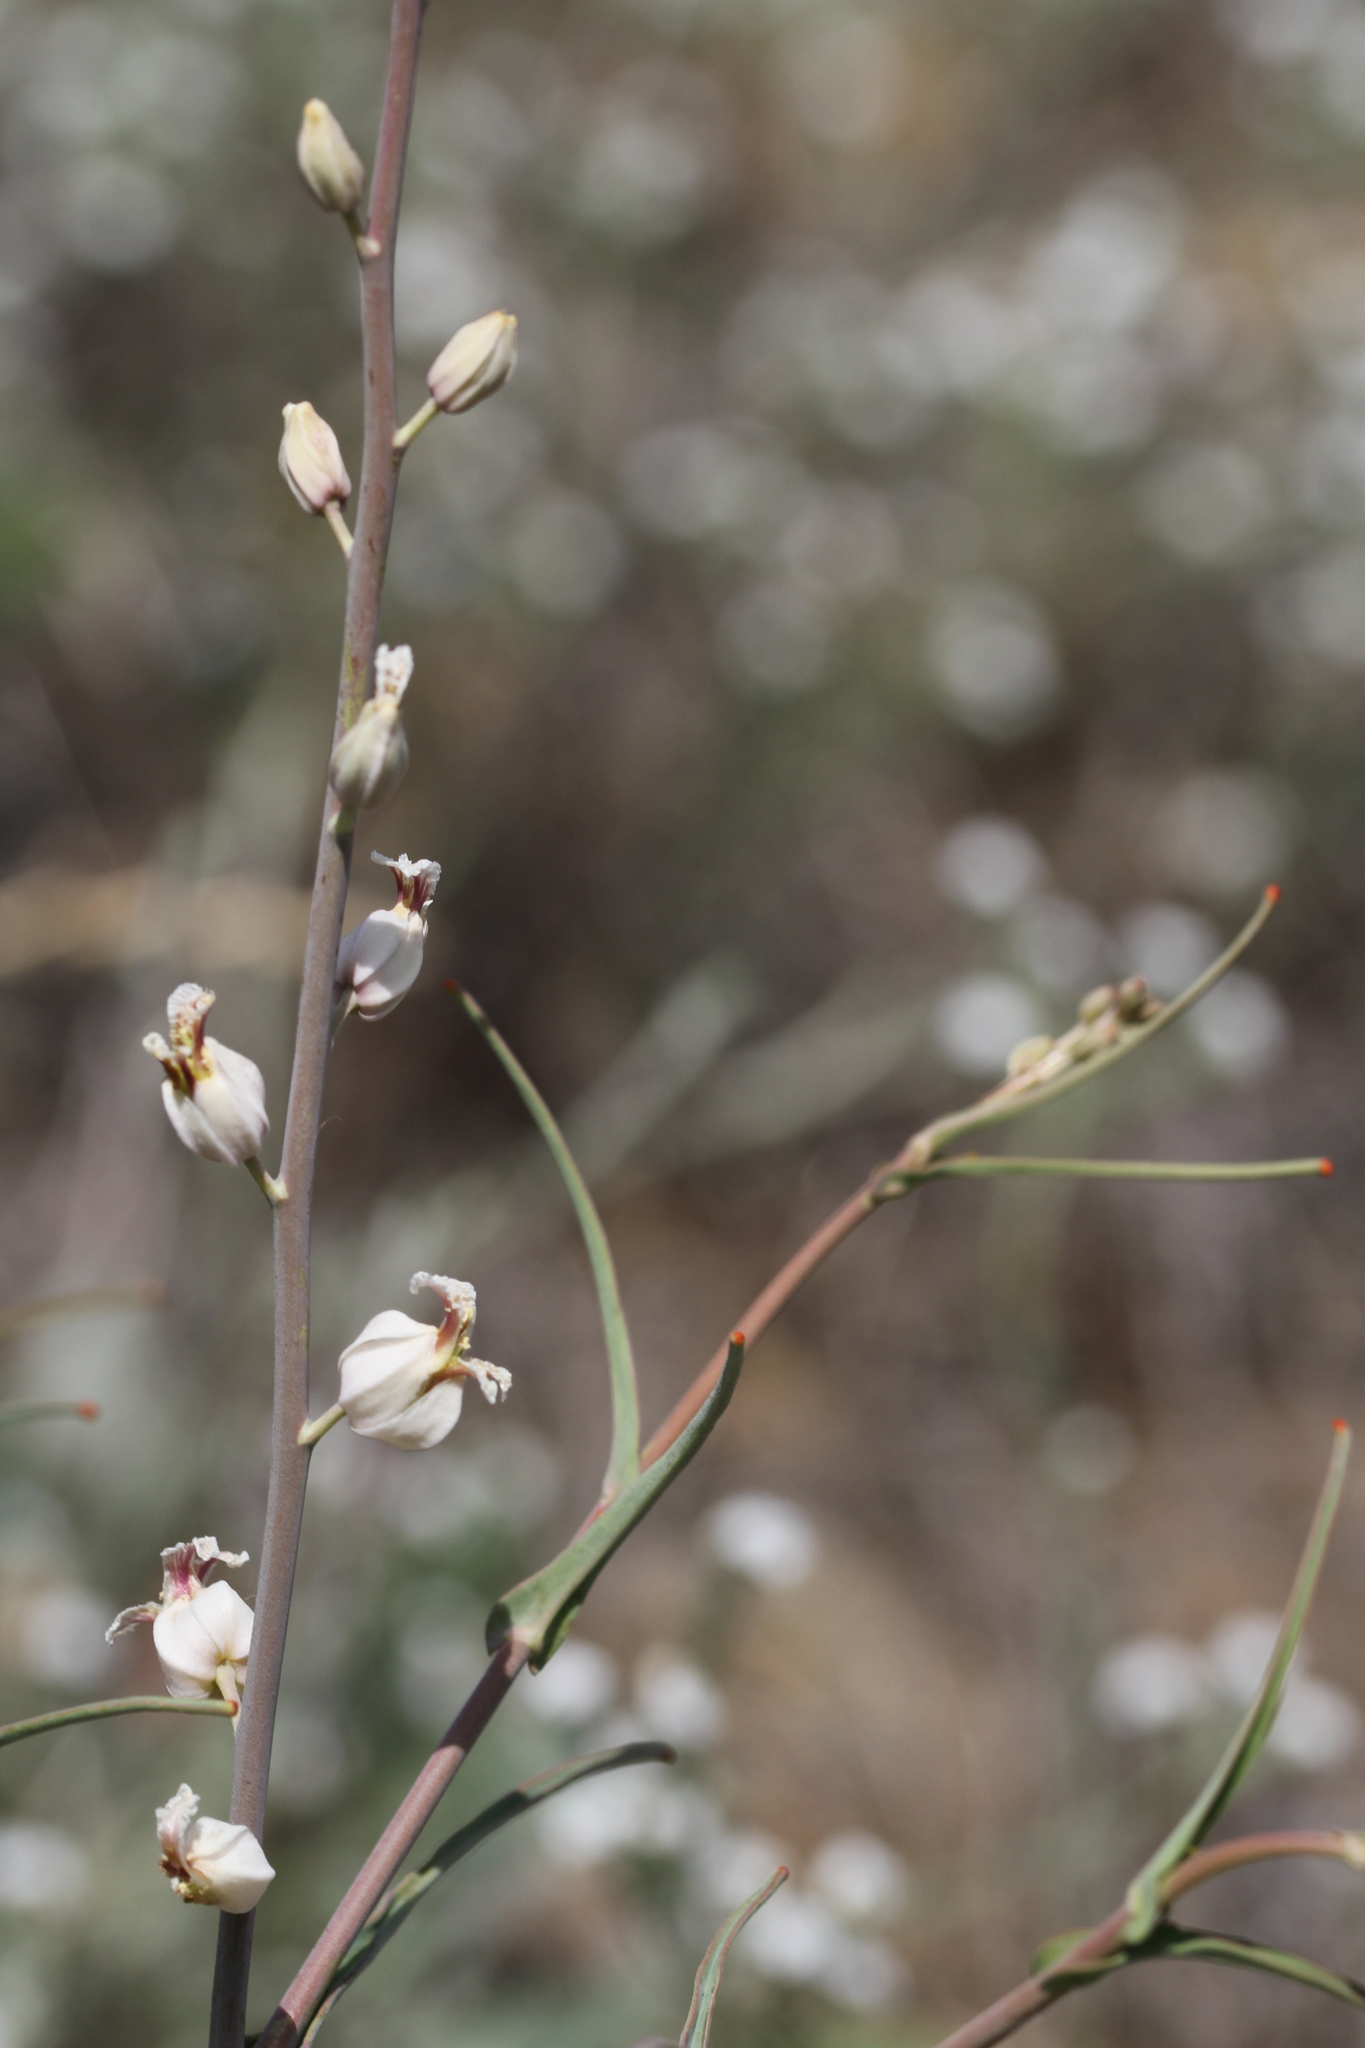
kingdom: Plantae
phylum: Tracheophyta
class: Magnoliopsida
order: Brassicales
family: Brassicaceae
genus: Streptanthus
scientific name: Streptanthus glandulosus
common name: Jewel-flower
